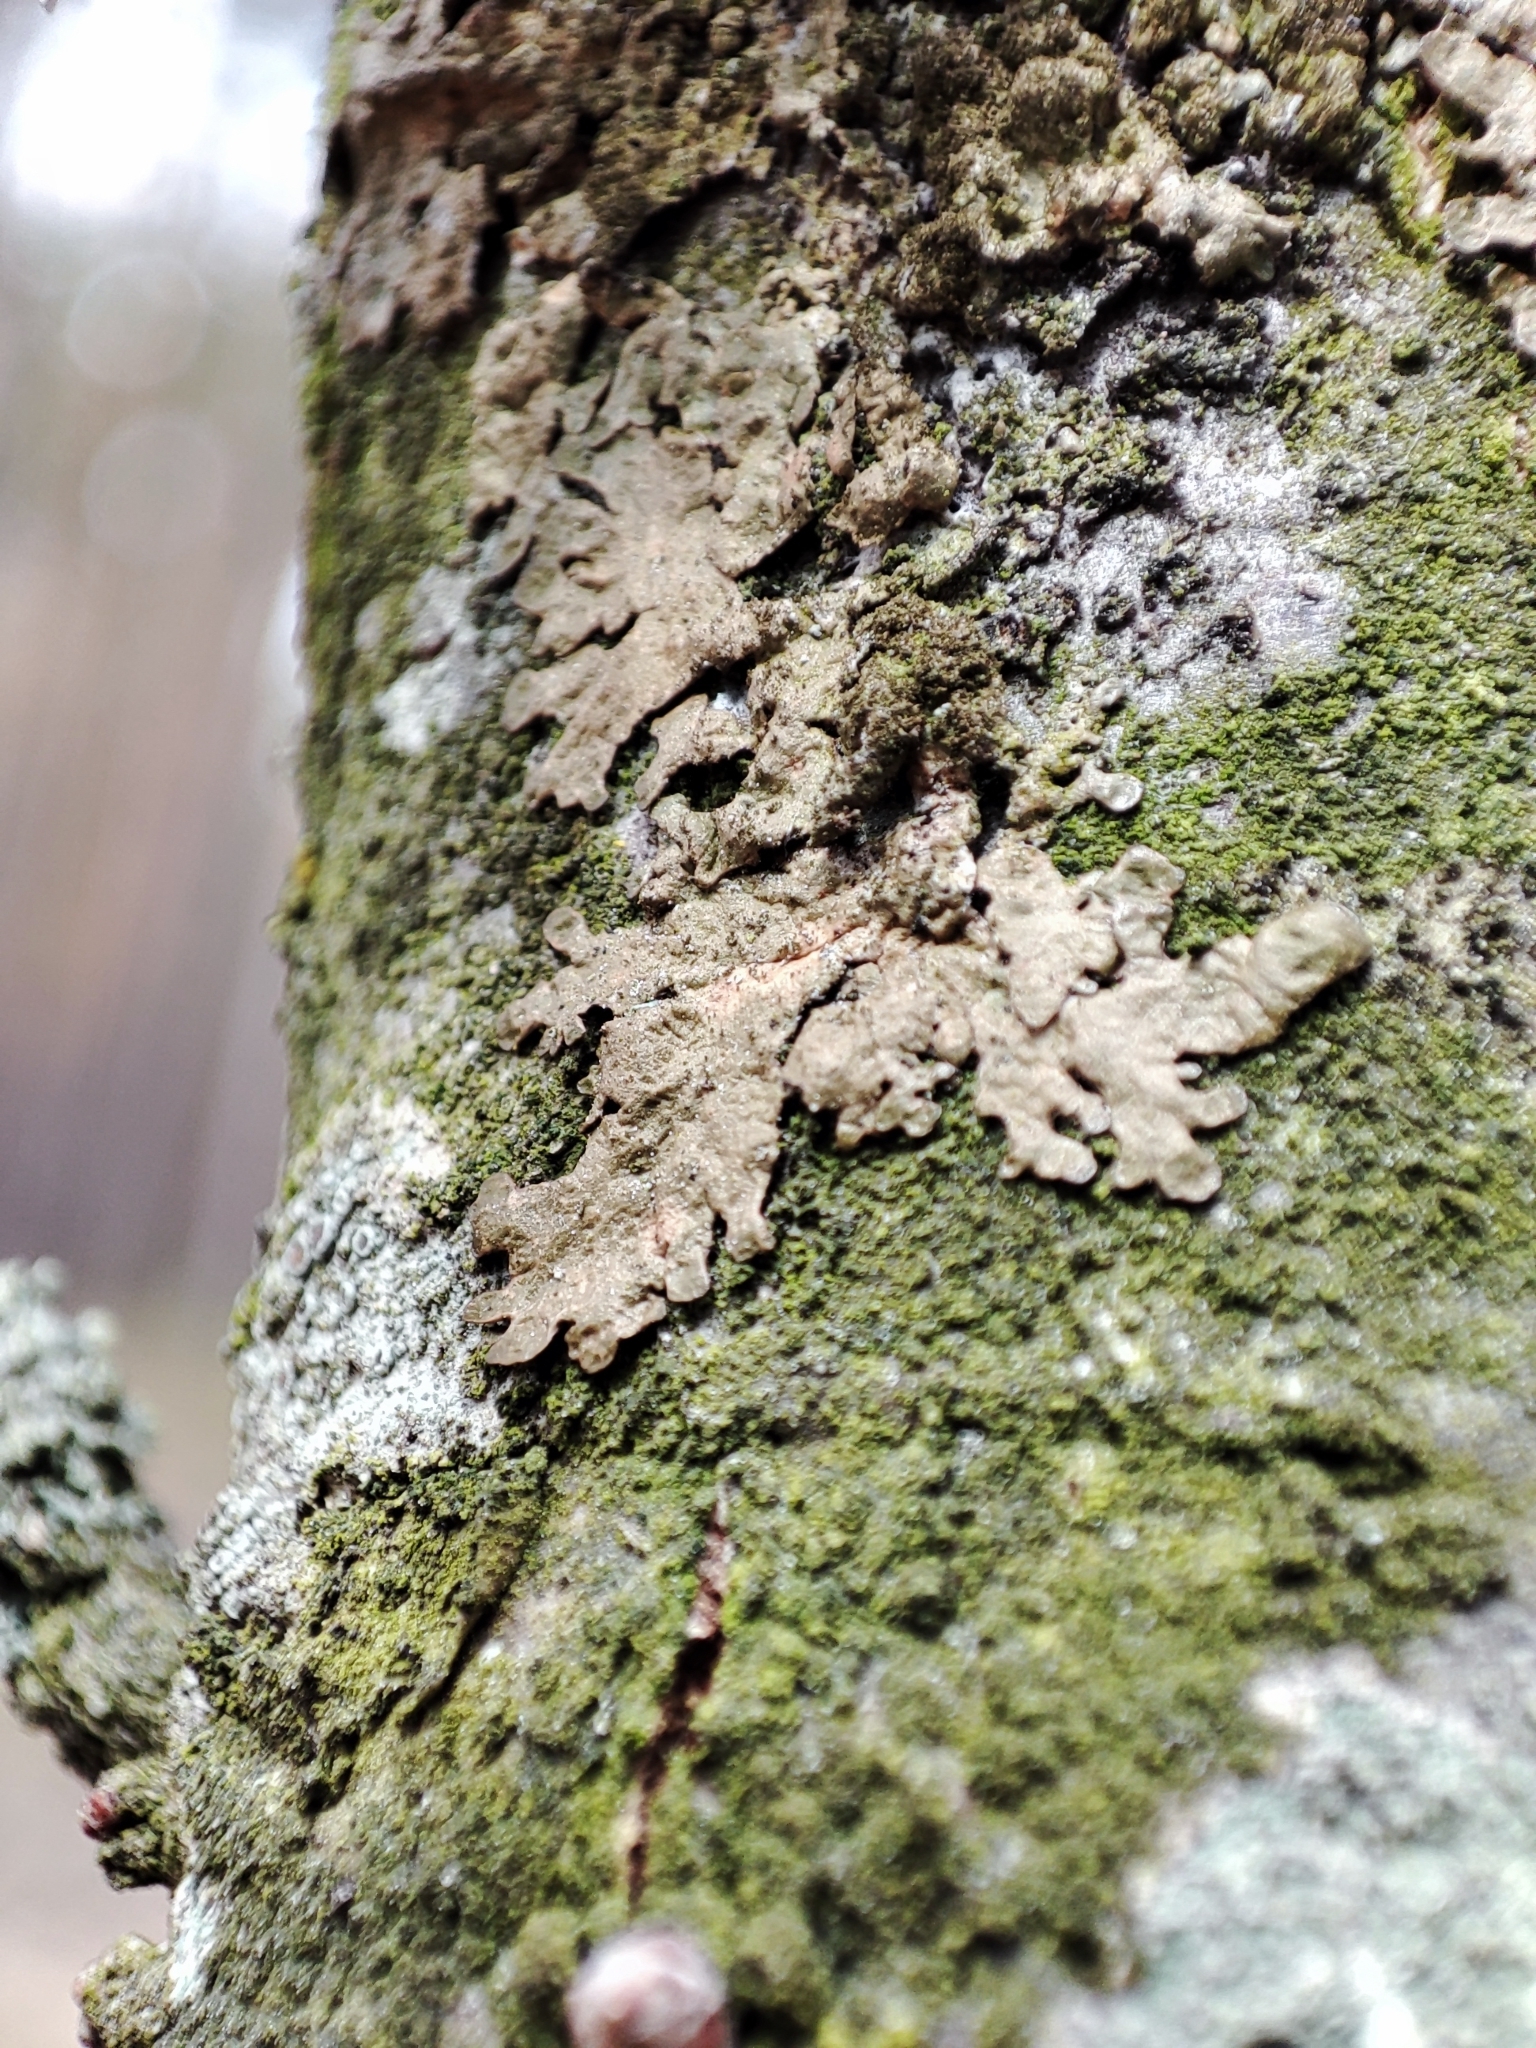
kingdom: Fungi
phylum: Ascomycota
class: Lecanoromycetes
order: Lecanorales
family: Parmeliaceae
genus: Melanelixia
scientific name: Melanelixia glabratula
